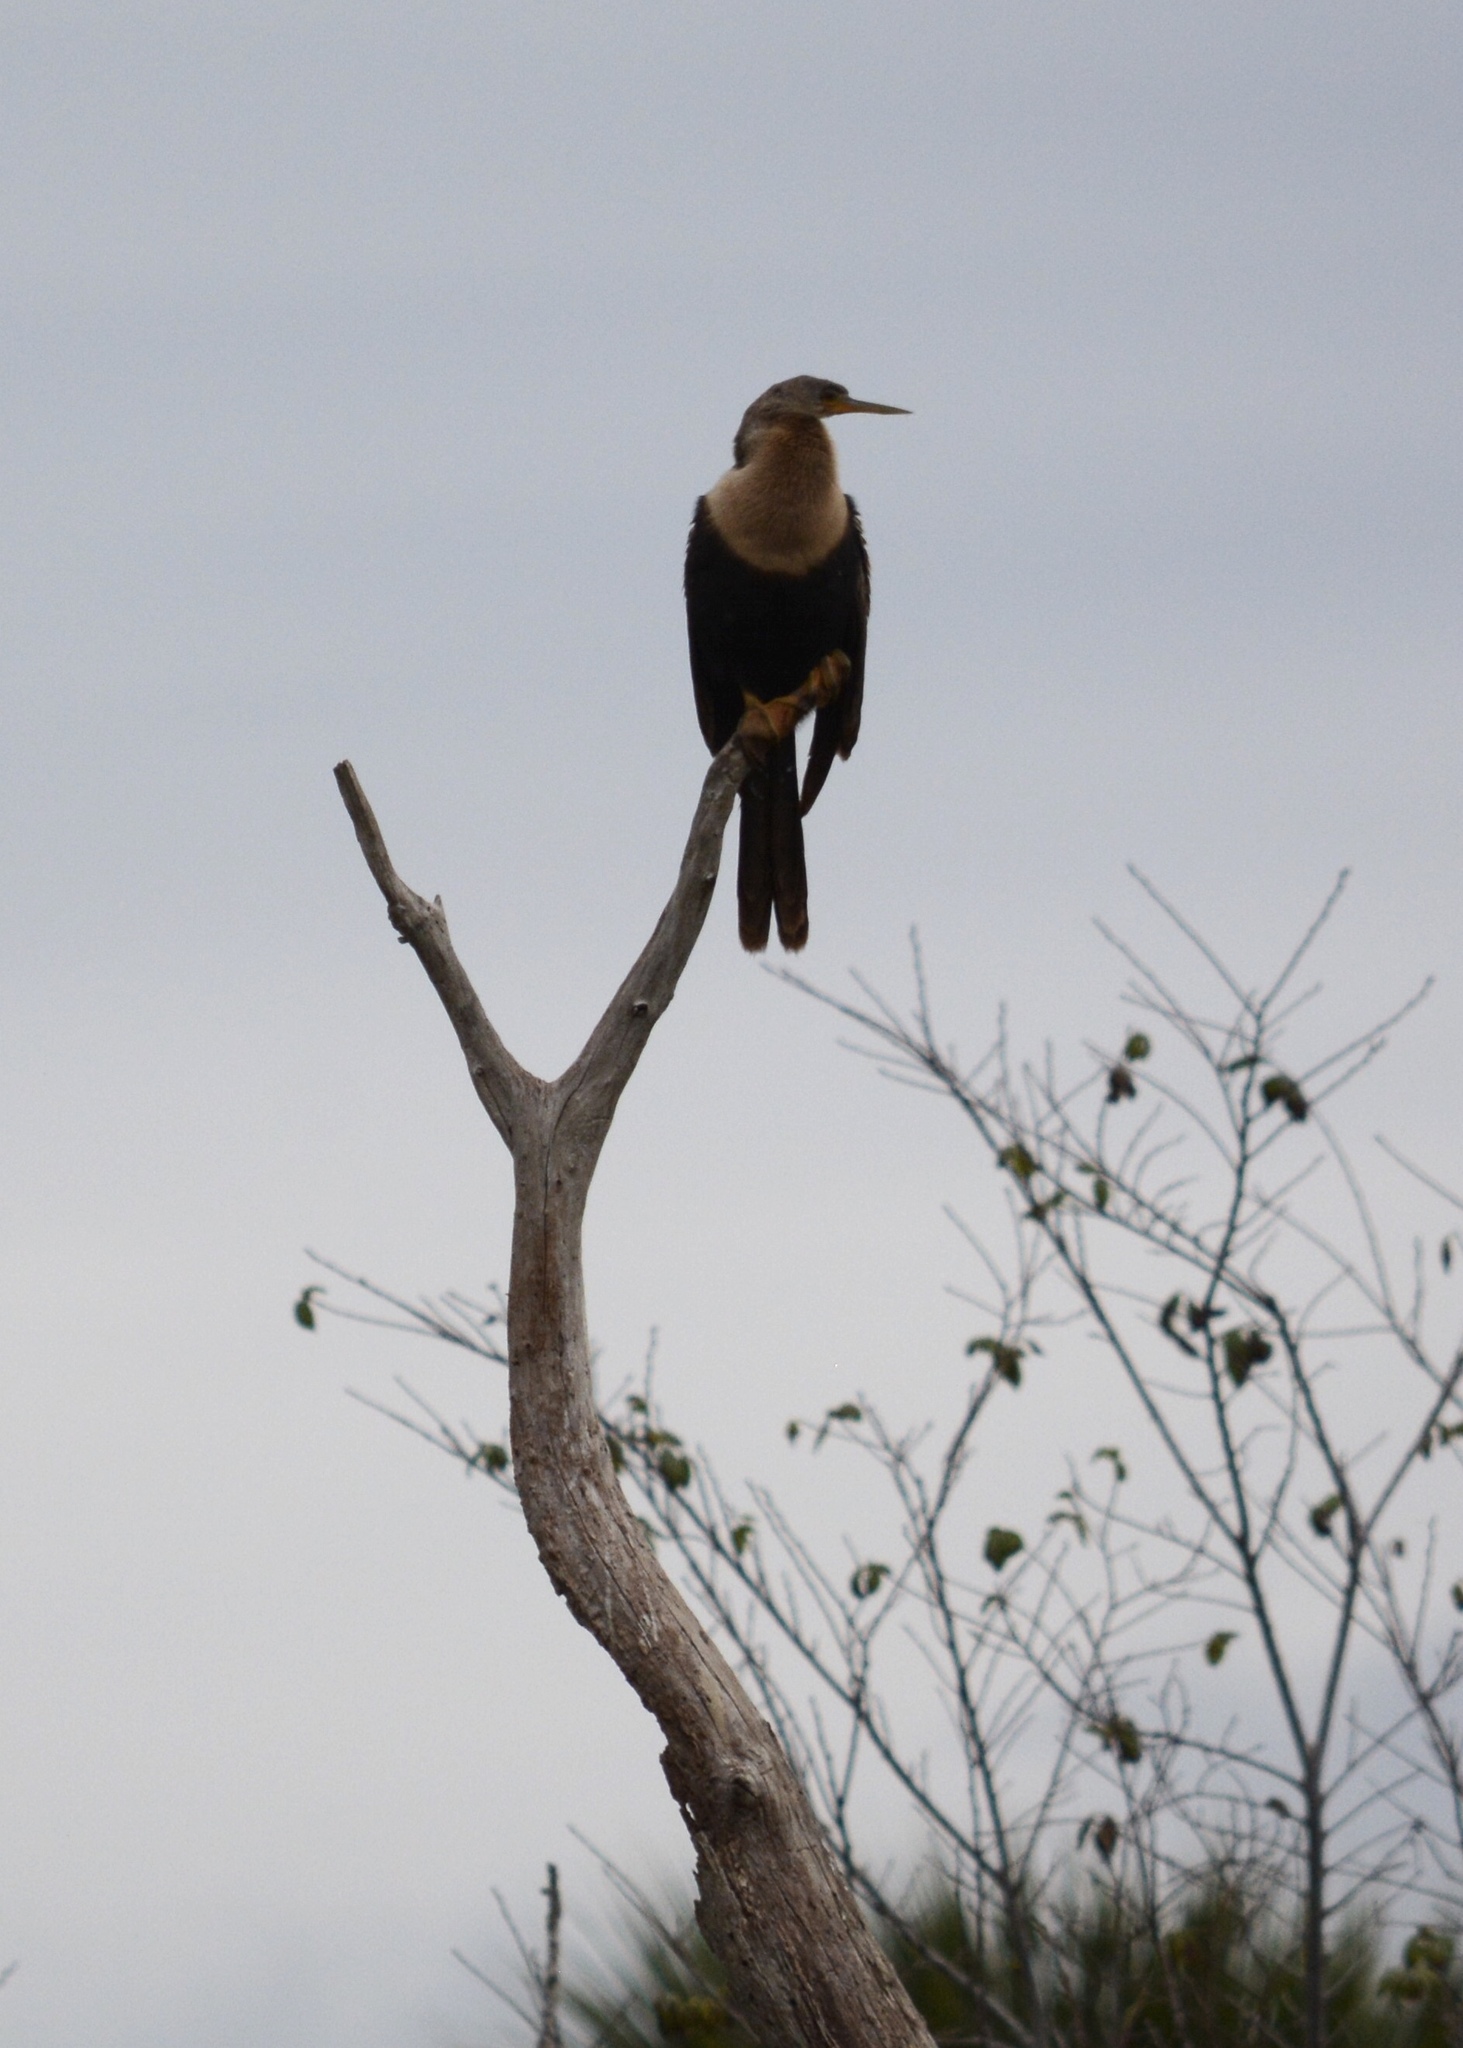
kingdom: Animalia
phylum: Chordata
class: Aves
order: Suliformes
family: Anhingidae
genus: Anhinga
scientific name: Anhinga anhinga
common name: Anhinga
